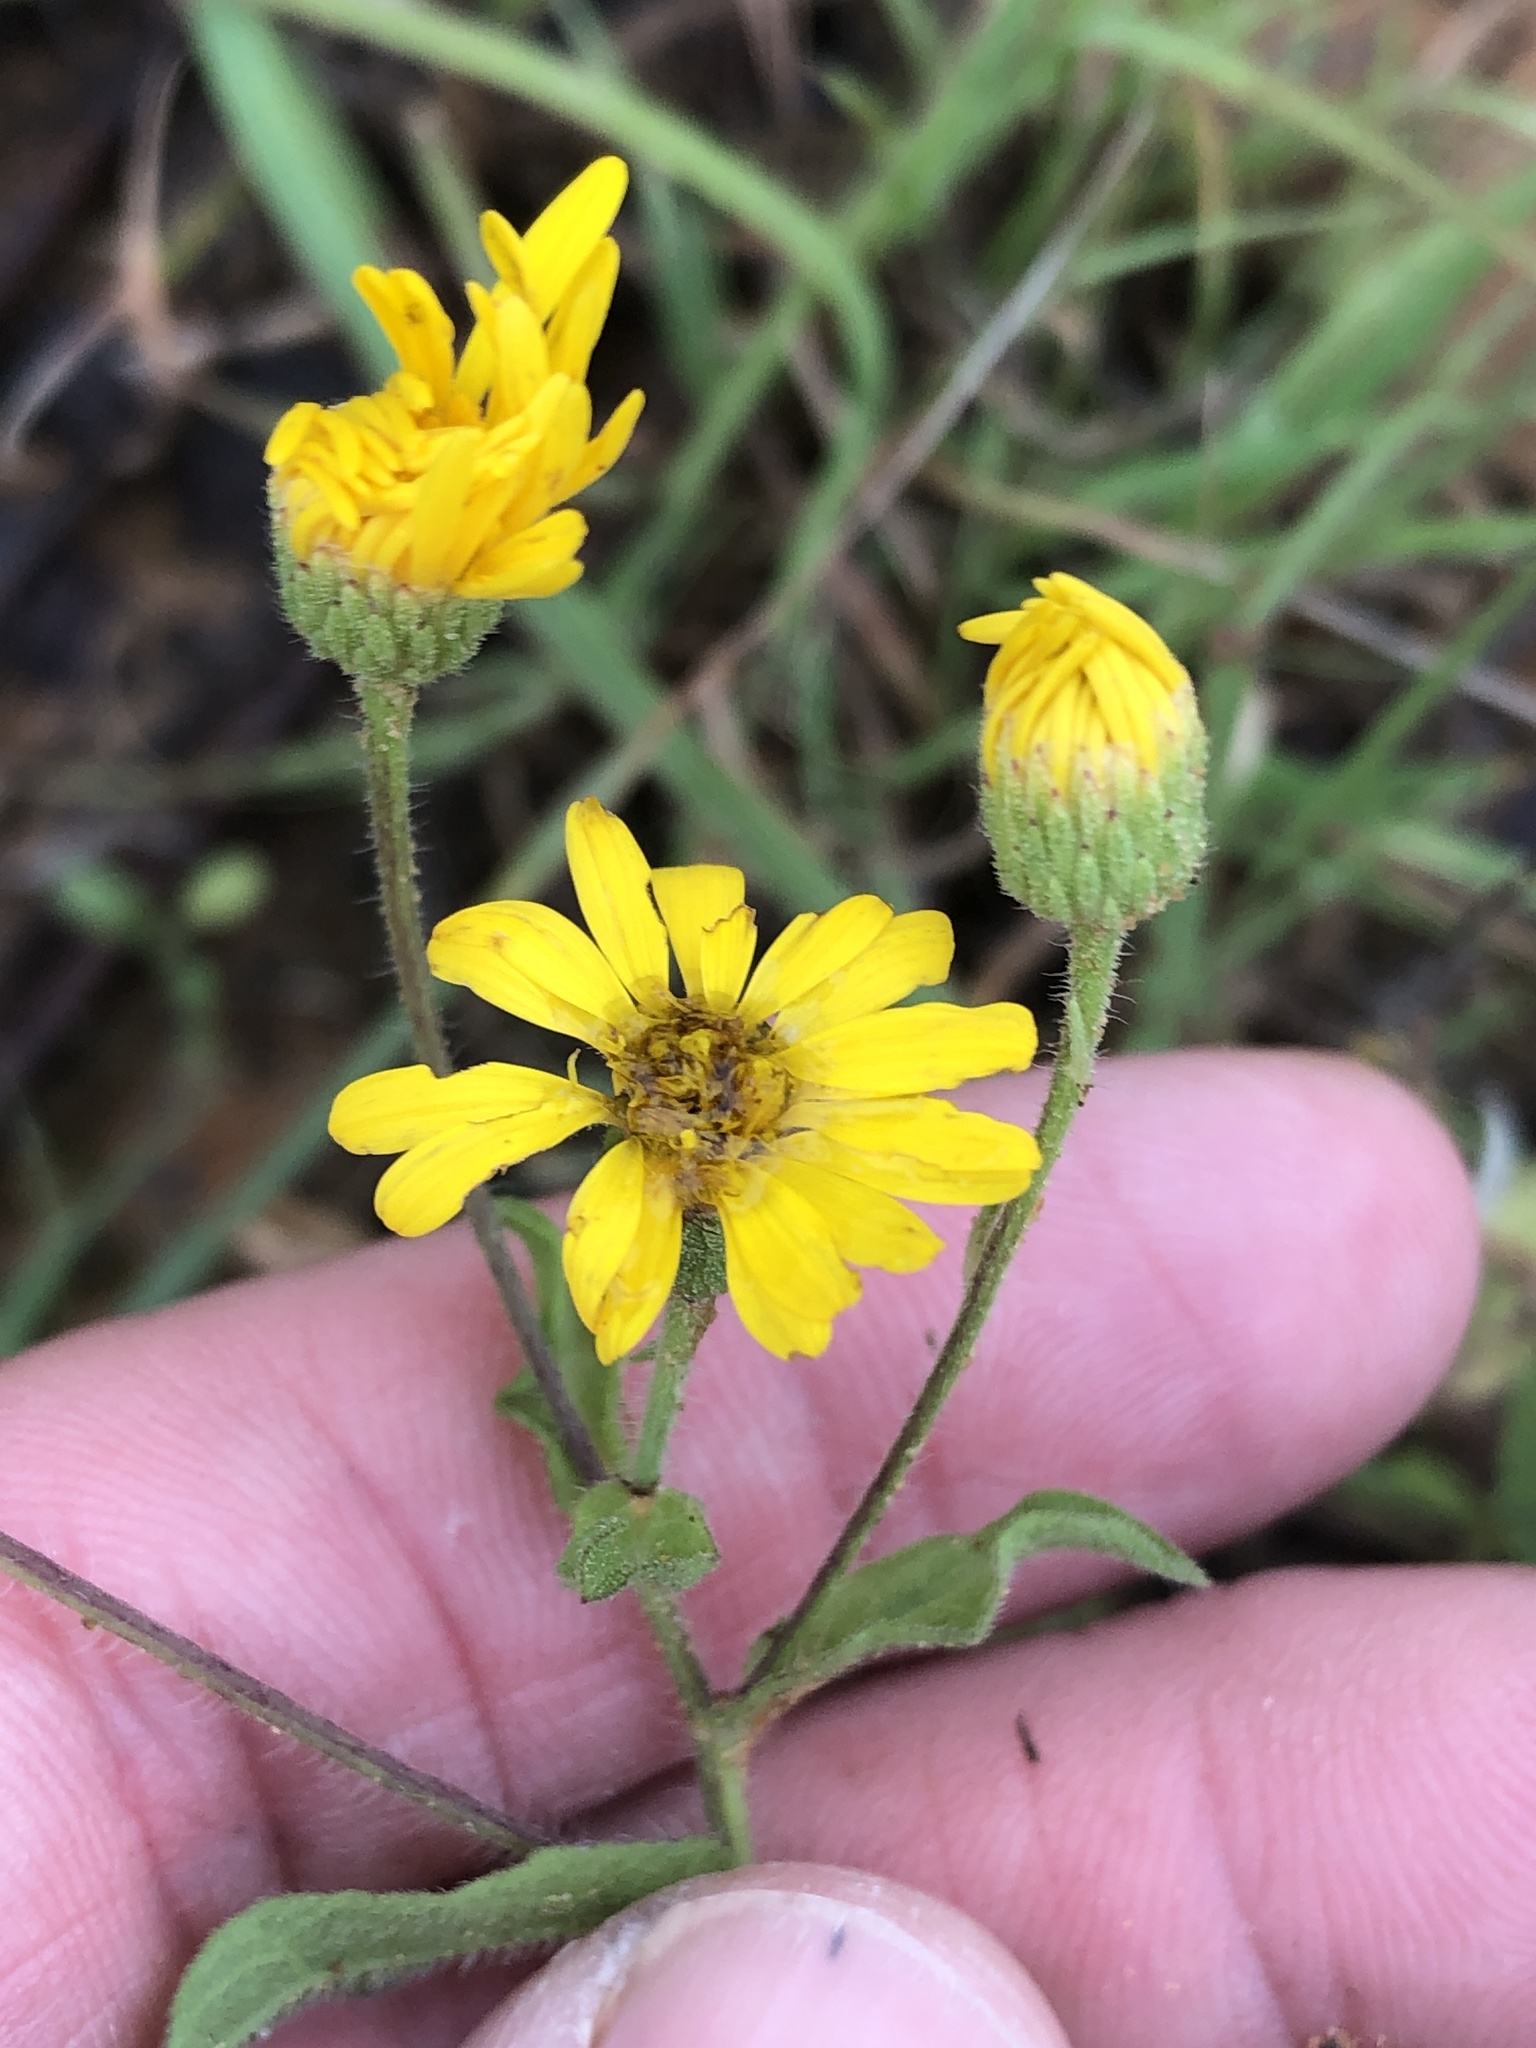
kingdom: Plantae
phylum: Tracheophyta
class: Magnoliopsida
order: Asterales
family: Asteraceae
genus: Heterotheca
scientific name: Heterotheca subaxillaris
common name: Camphorweed
